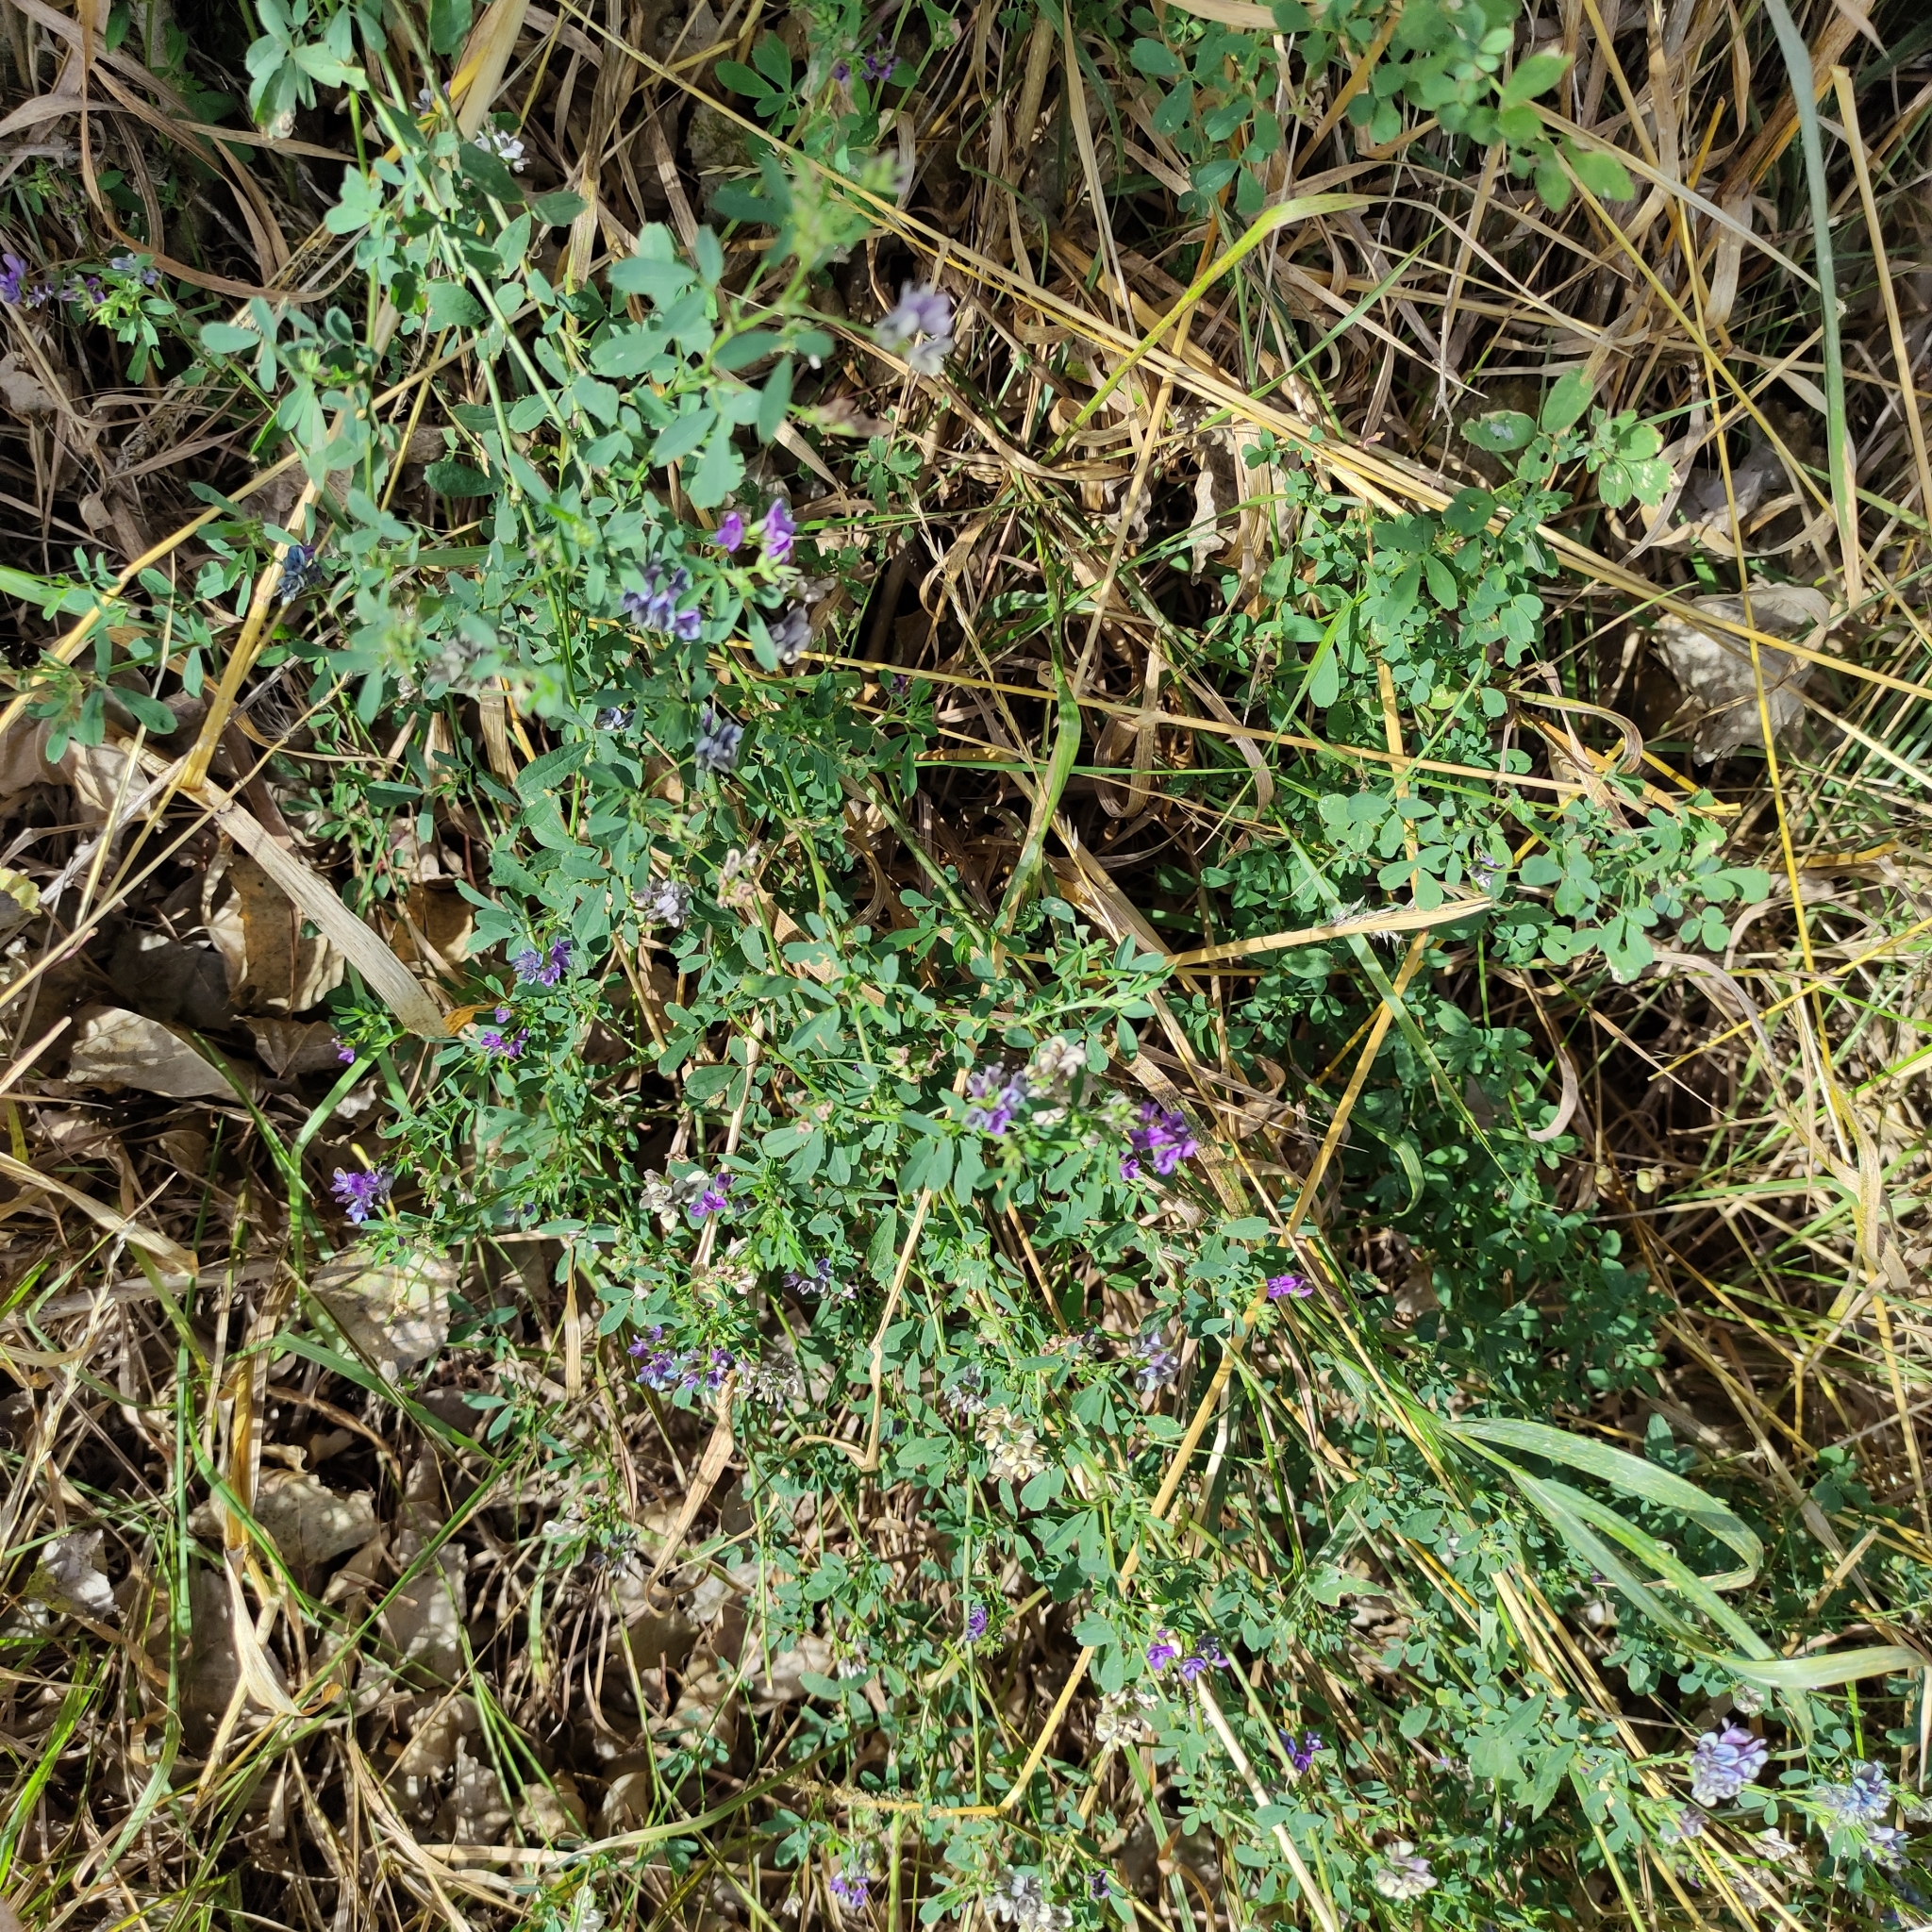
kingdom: Plantae
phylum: Tracheophyta
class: Magnoliopsida
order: Fabales
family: Fabaceae
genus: Medicago
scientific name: Medicago sativa
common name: Alfalfa
